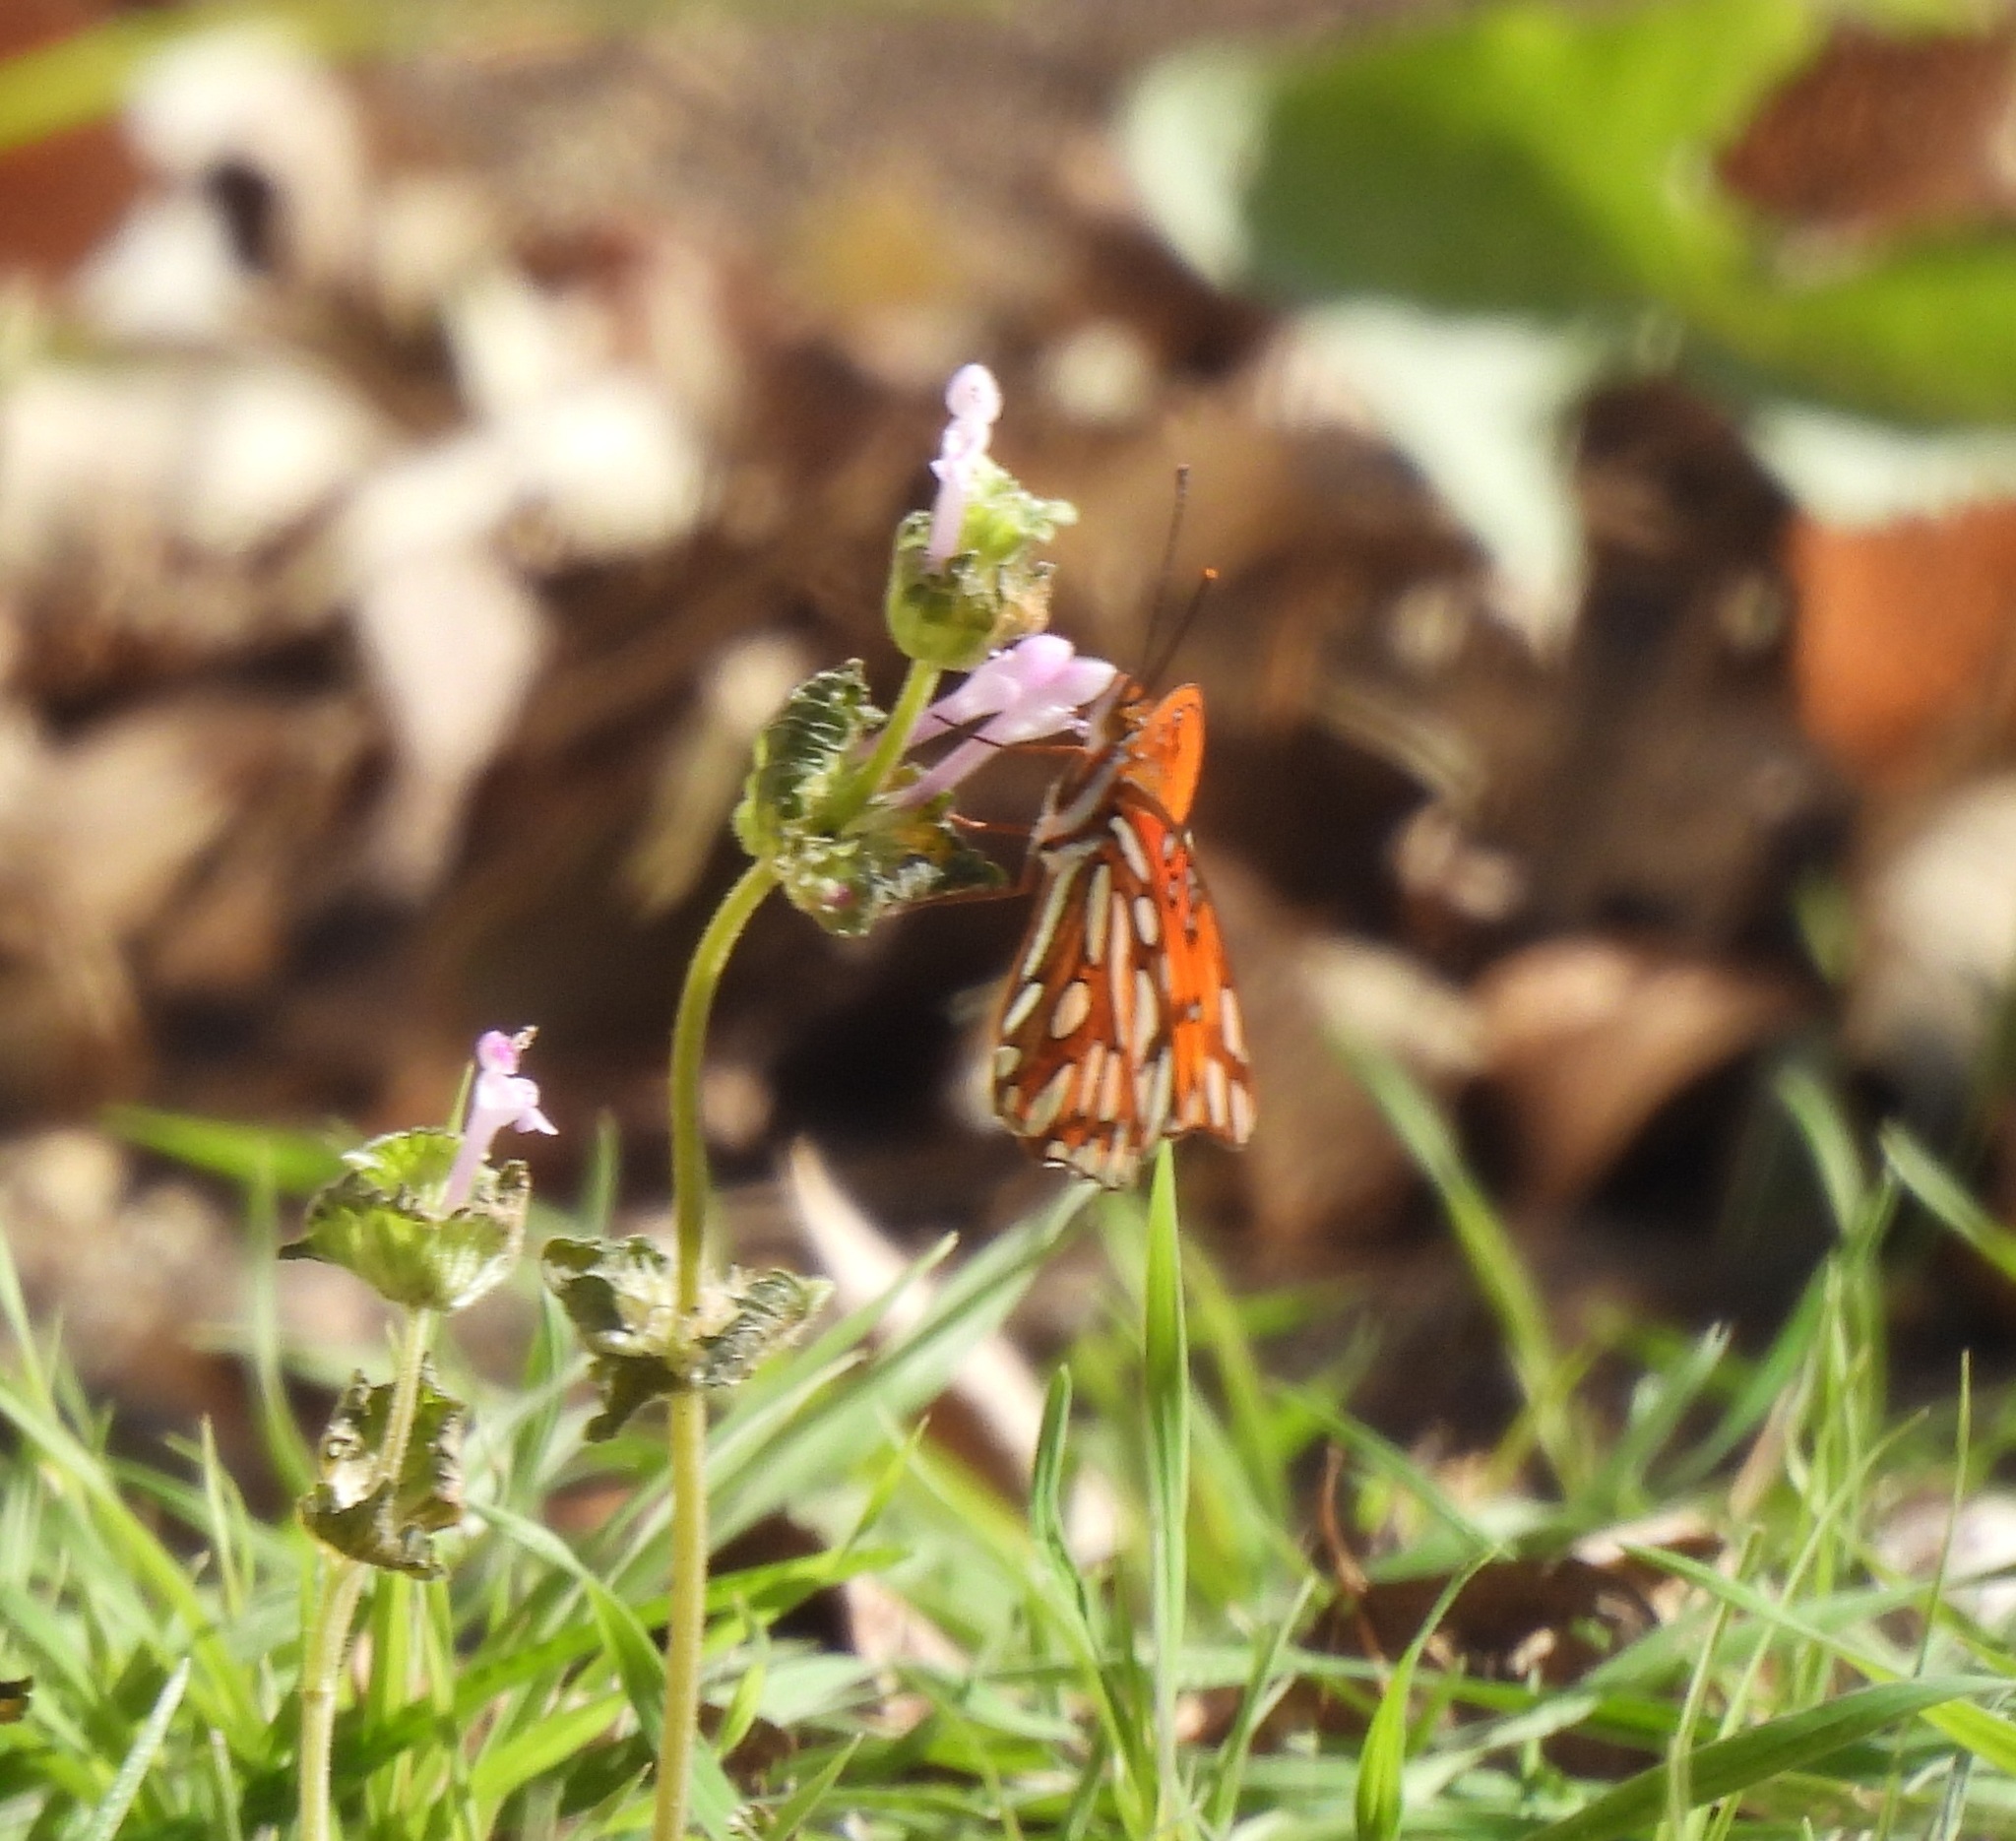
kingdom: Animalia
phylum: Arthropoda
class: Insecta
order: Lepidoptera
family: Nymphalidae
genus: Dione
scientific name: Dione vanillae
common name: Gulf fritillary
